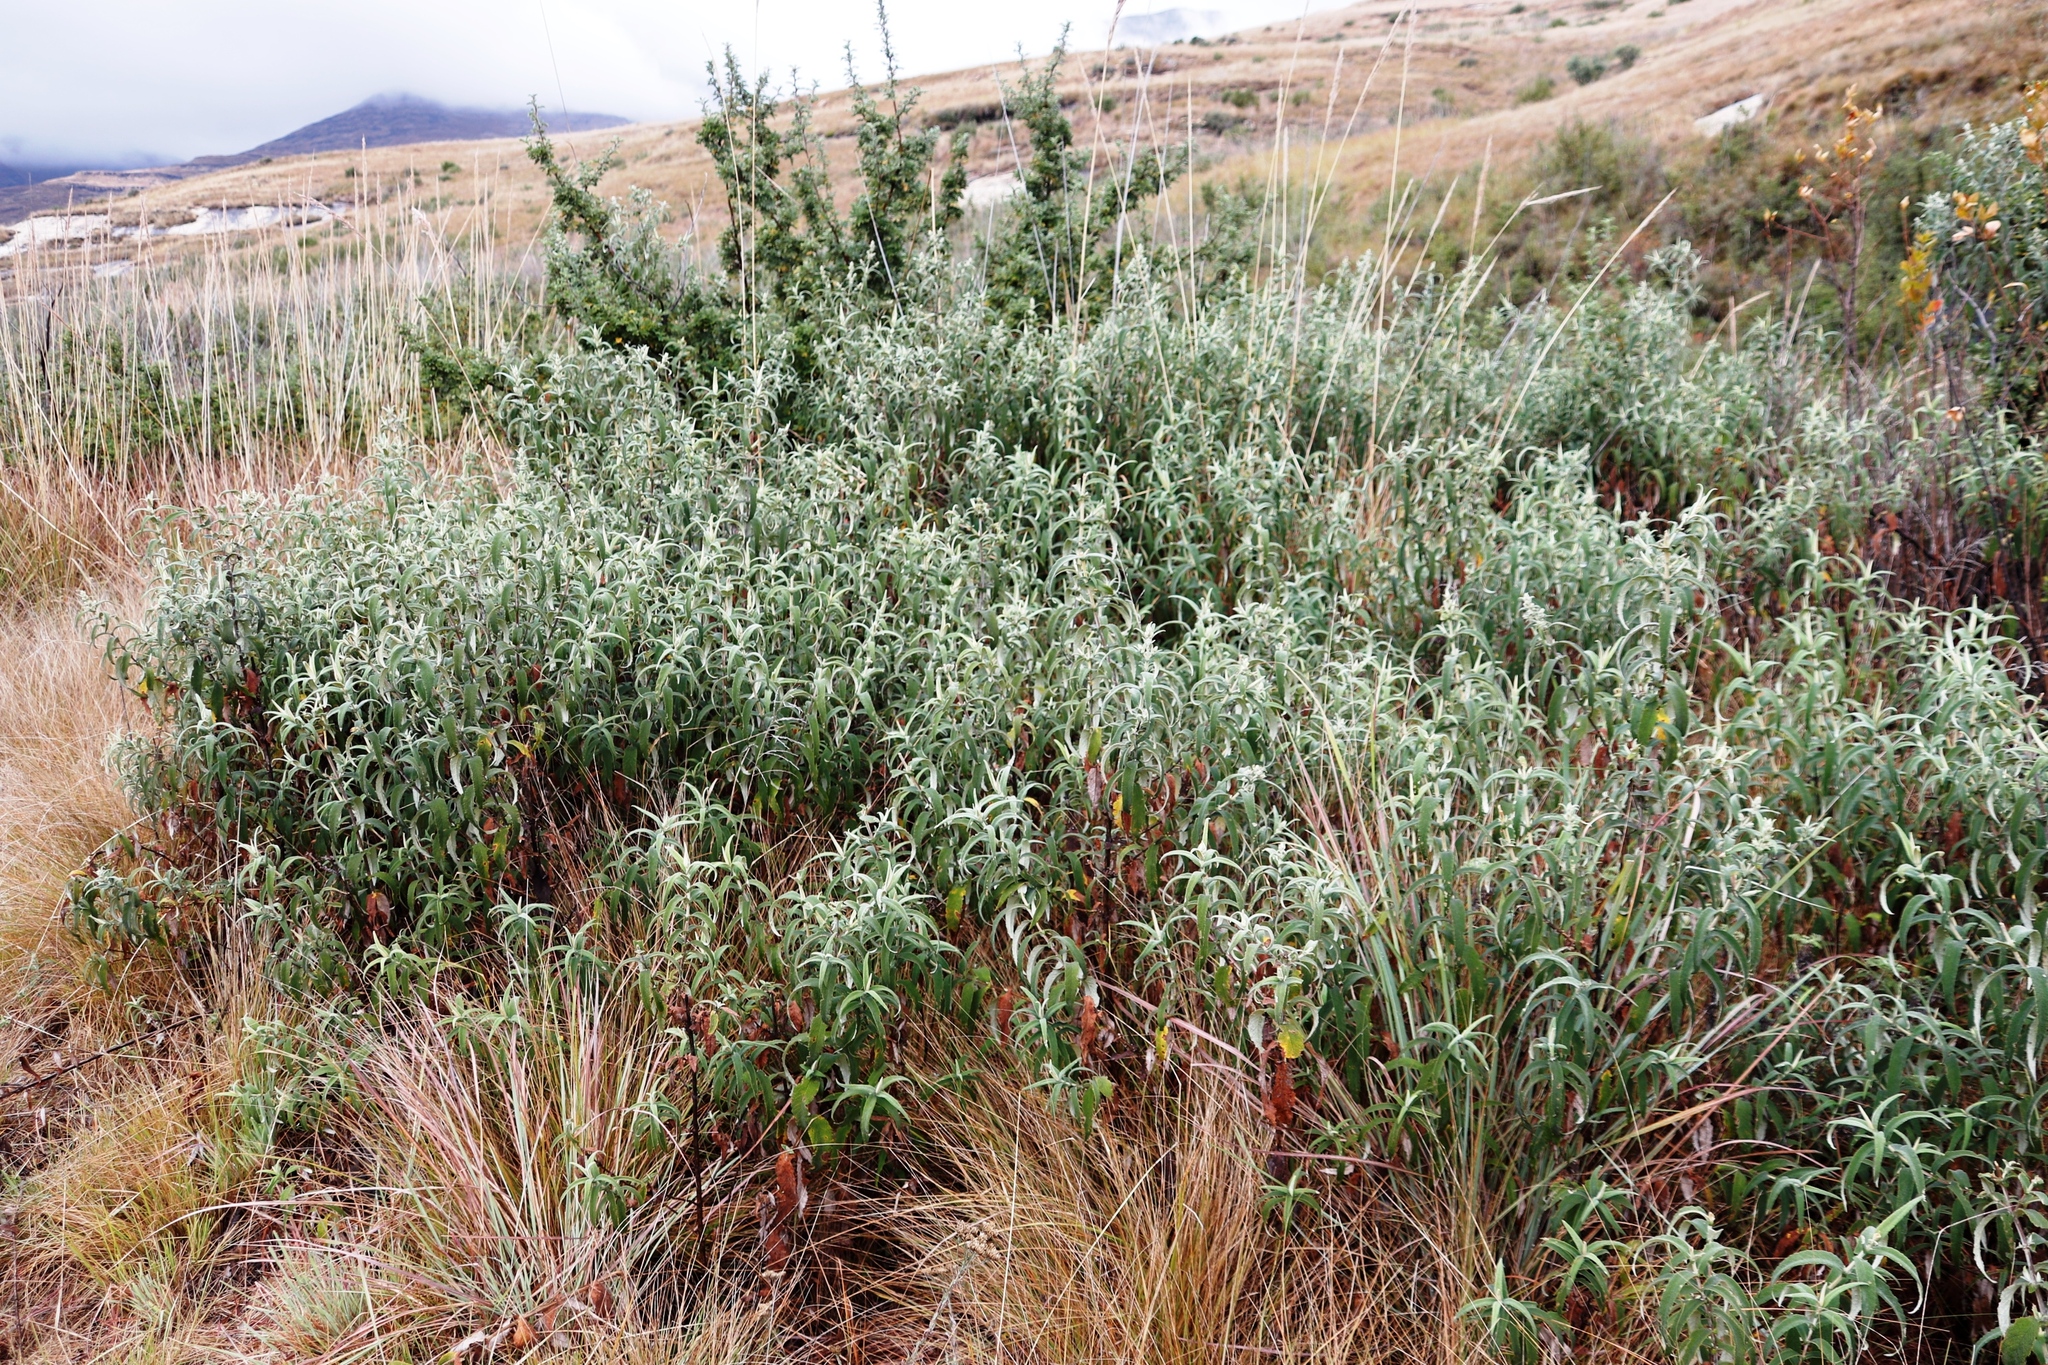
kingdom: Plantae
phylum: Tracheophyta
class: Magnoliopsida
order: Lamiales
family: Scrophulariaceae
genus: Buddleja
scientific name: Buddleja salviifolia
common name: Sagewood
